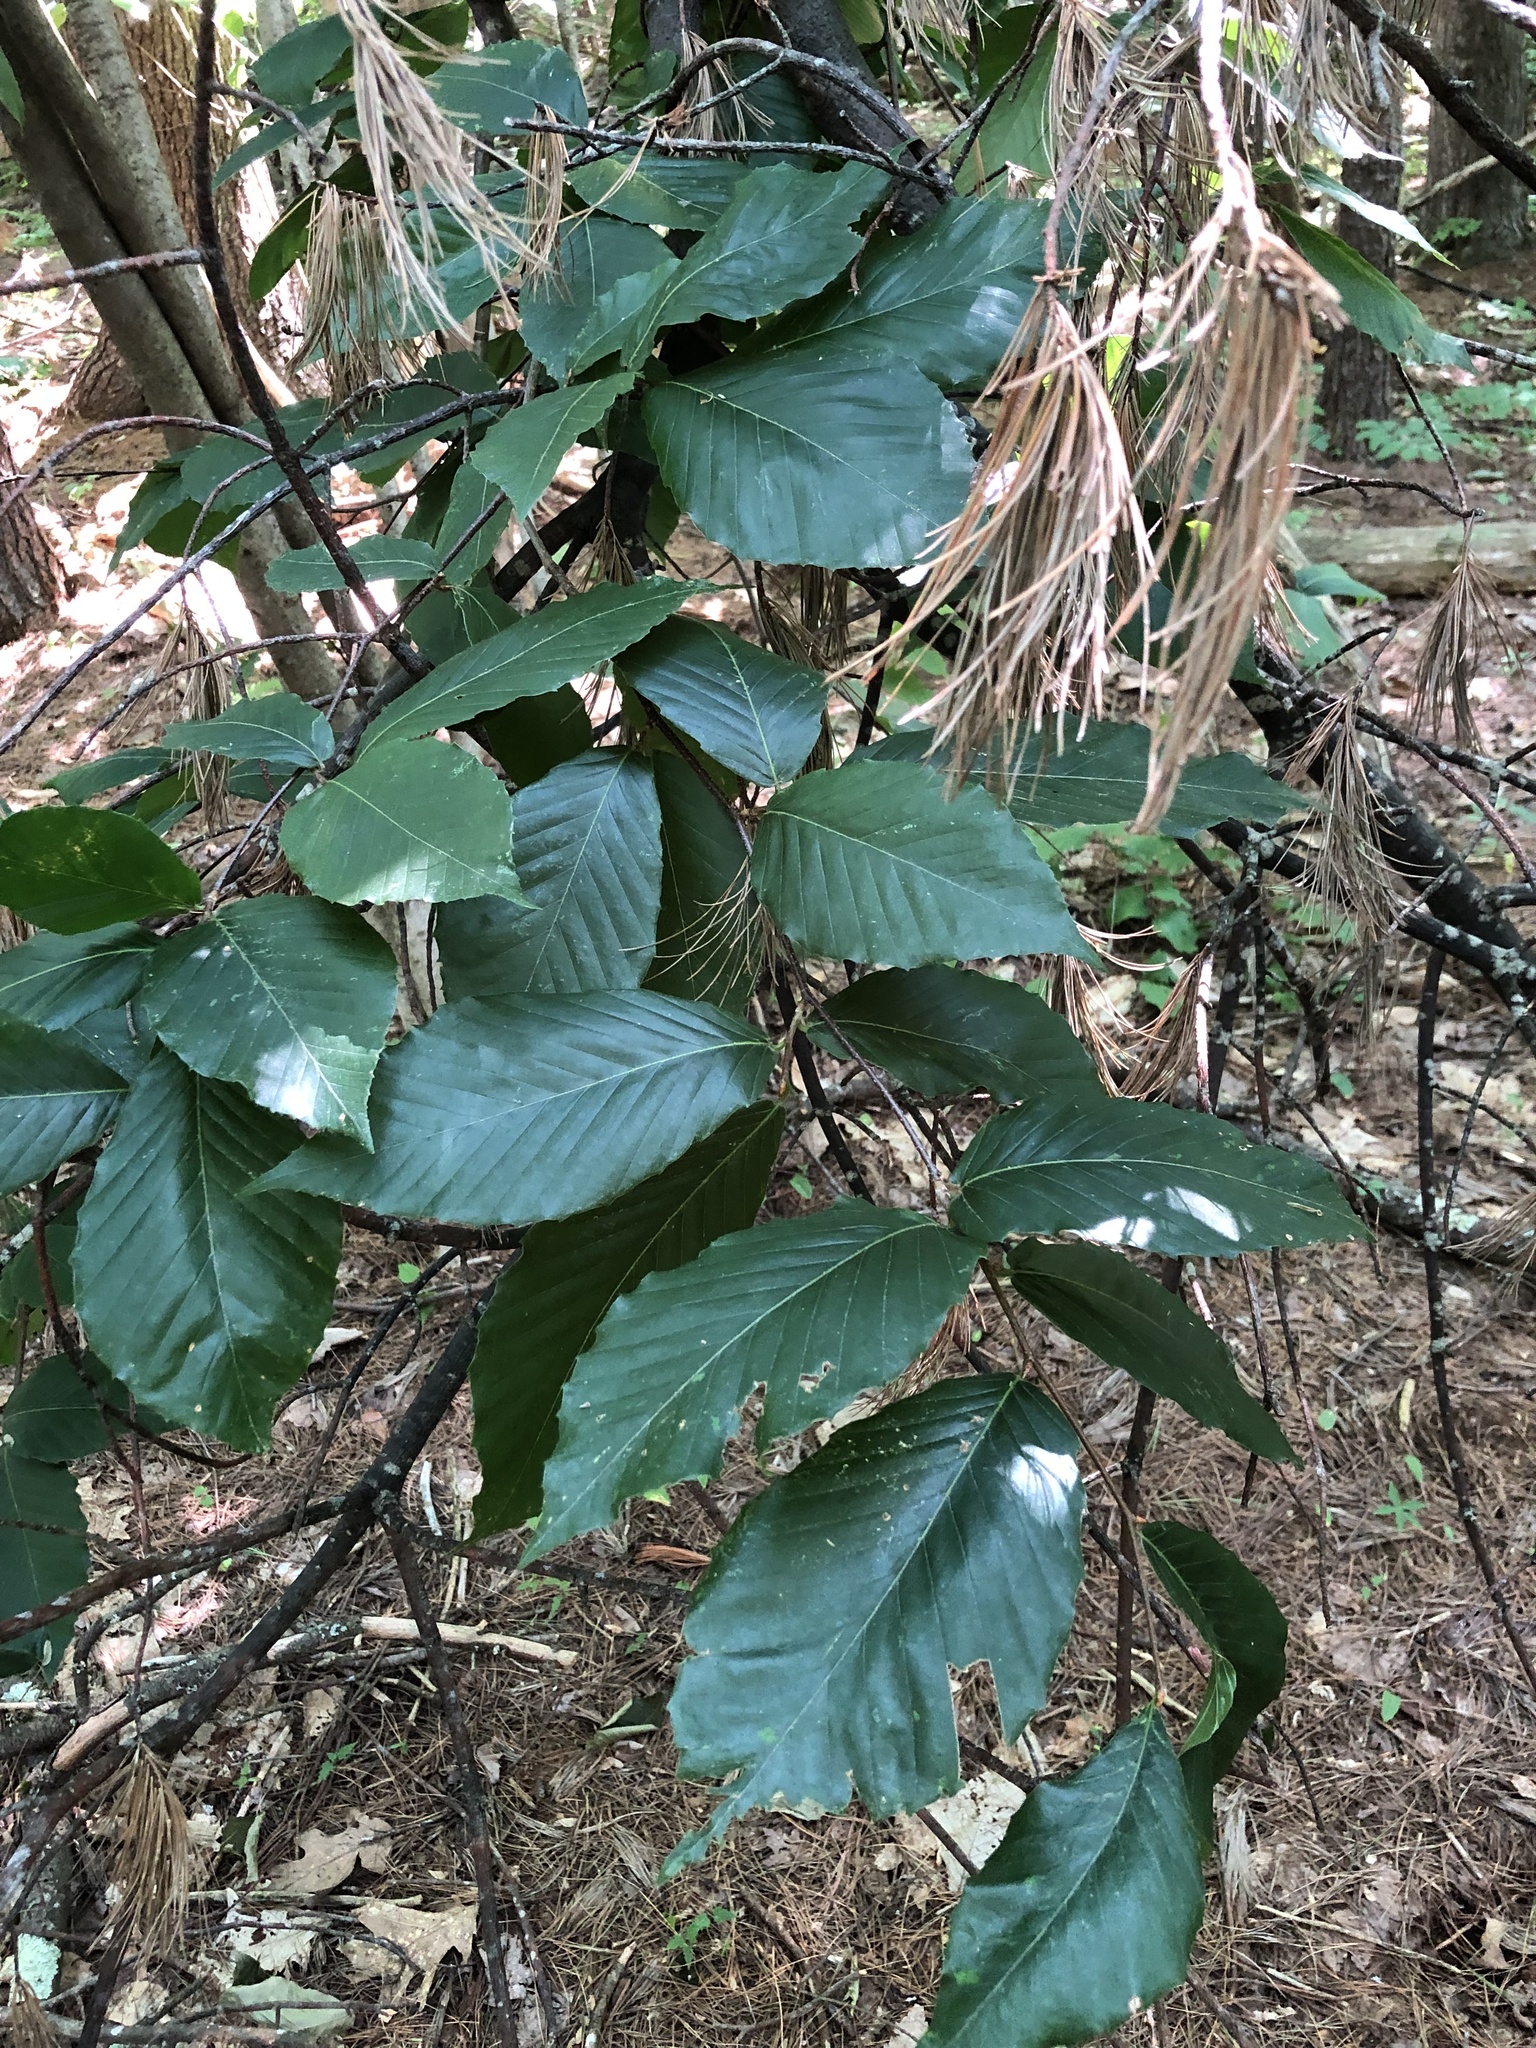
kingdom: Plantae
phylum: Tracheophyta
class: Magnoliopsida
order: Fagales
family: Fagaceae
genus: Fagus
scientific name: Fagus grandifolia
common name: American beech
